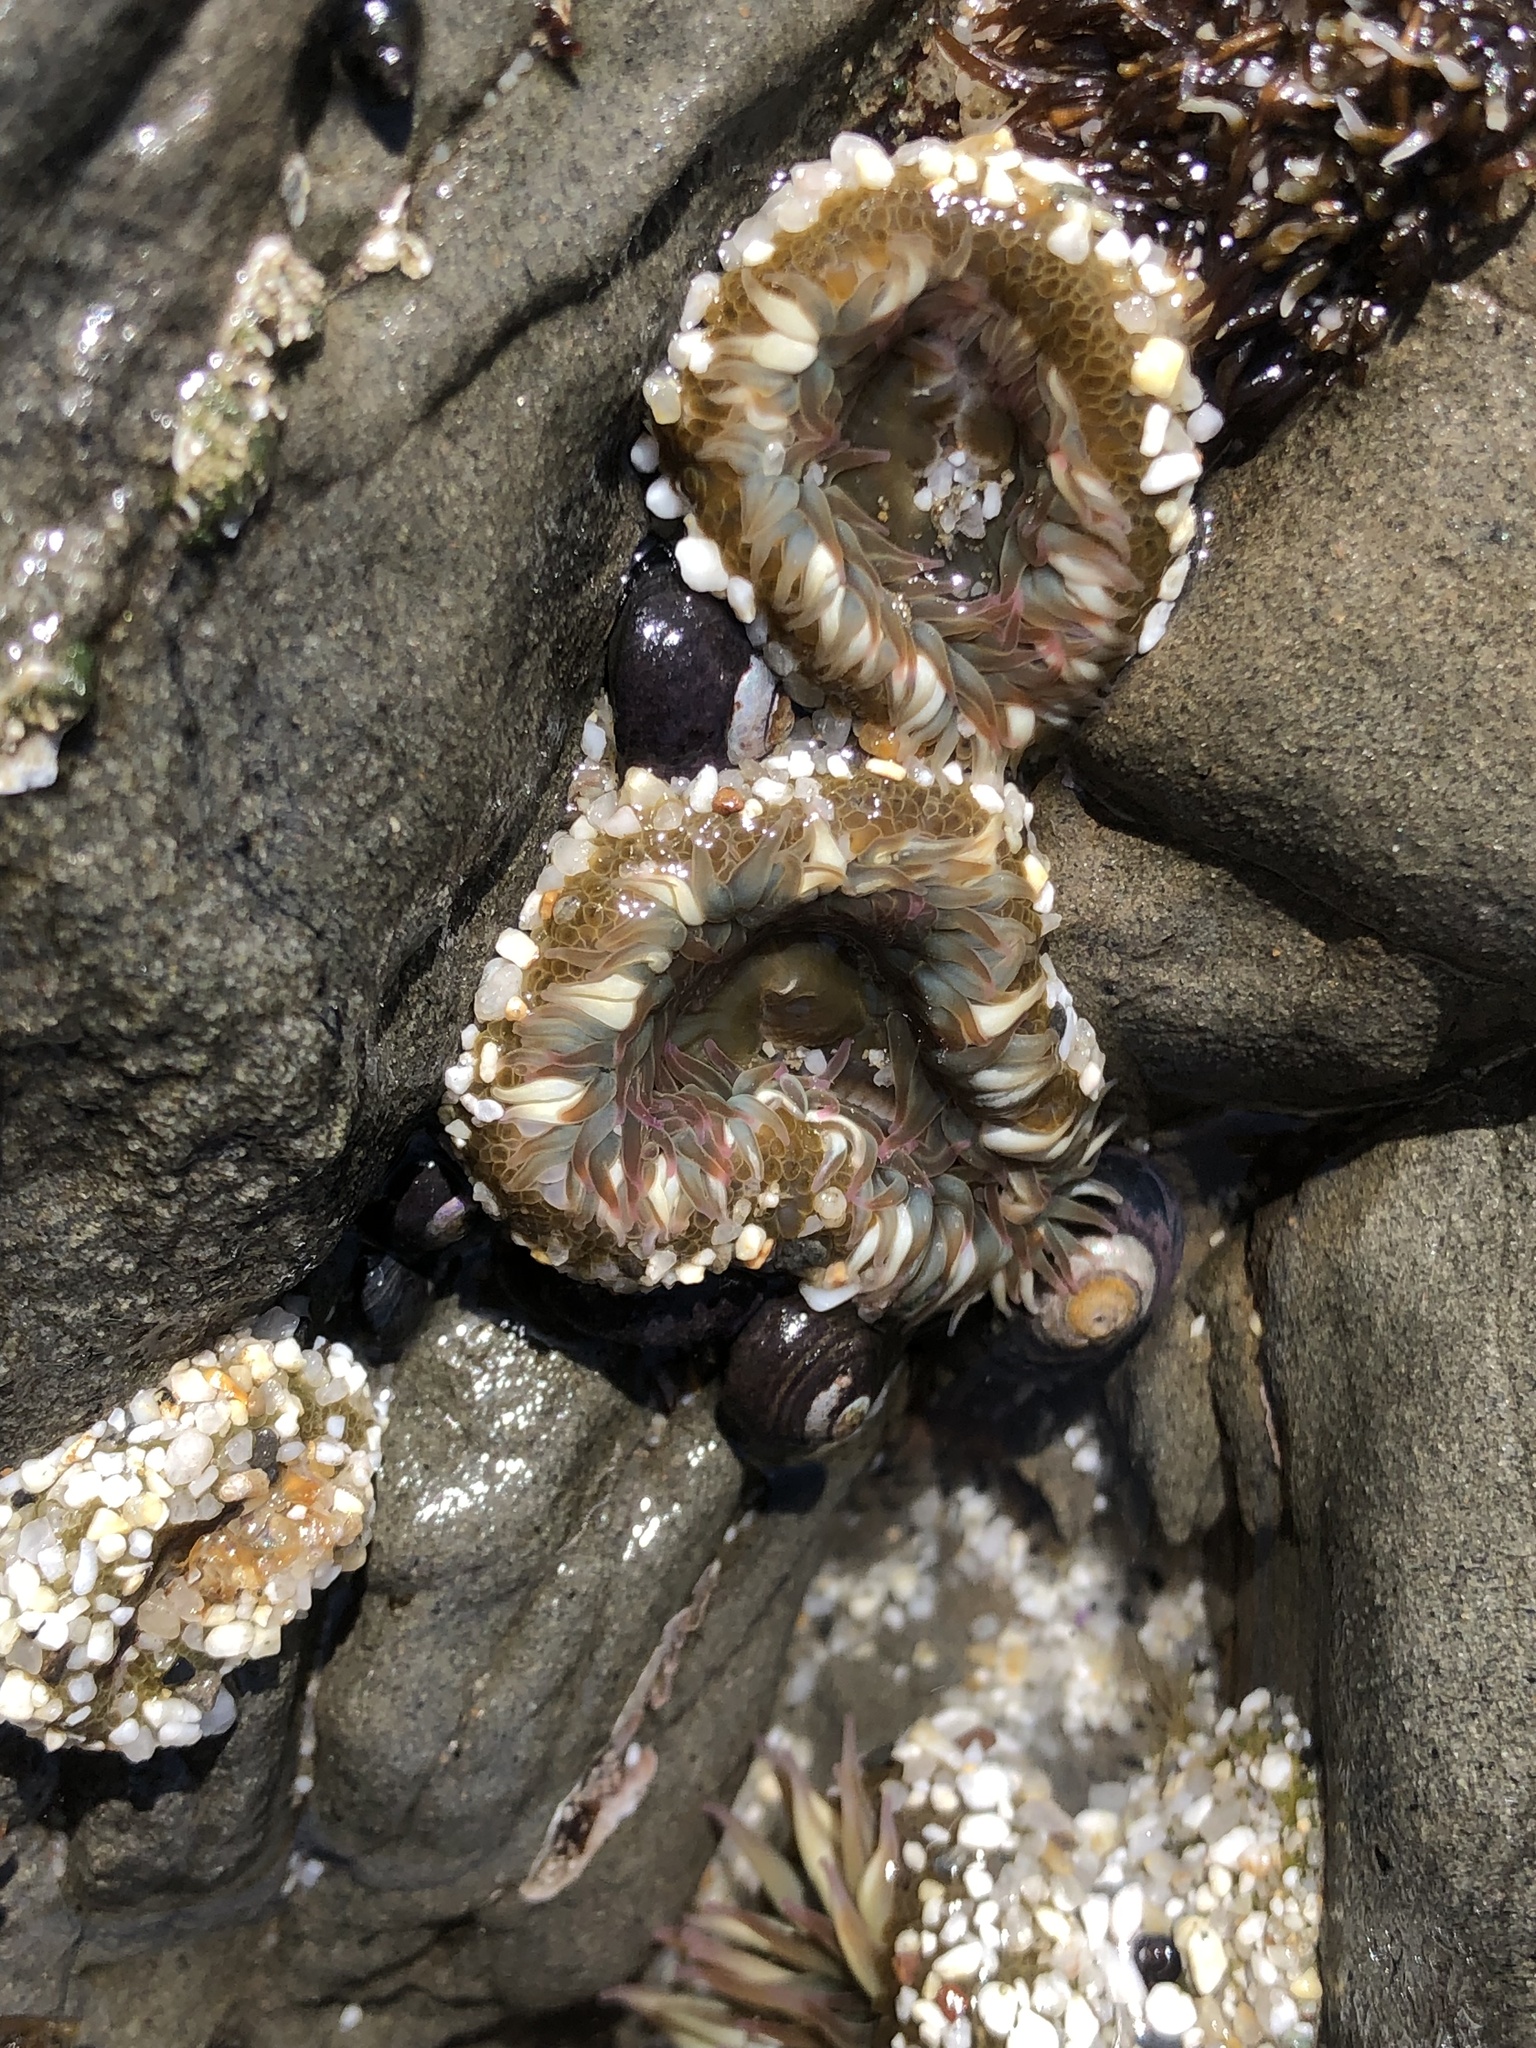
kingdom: Animalia
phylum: Cnidaria
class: Anthozoa
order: Actiniaria
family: Actiniidae
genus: Anthopleura
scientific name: Anthopleura elegantissima
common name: Clonal anemone
